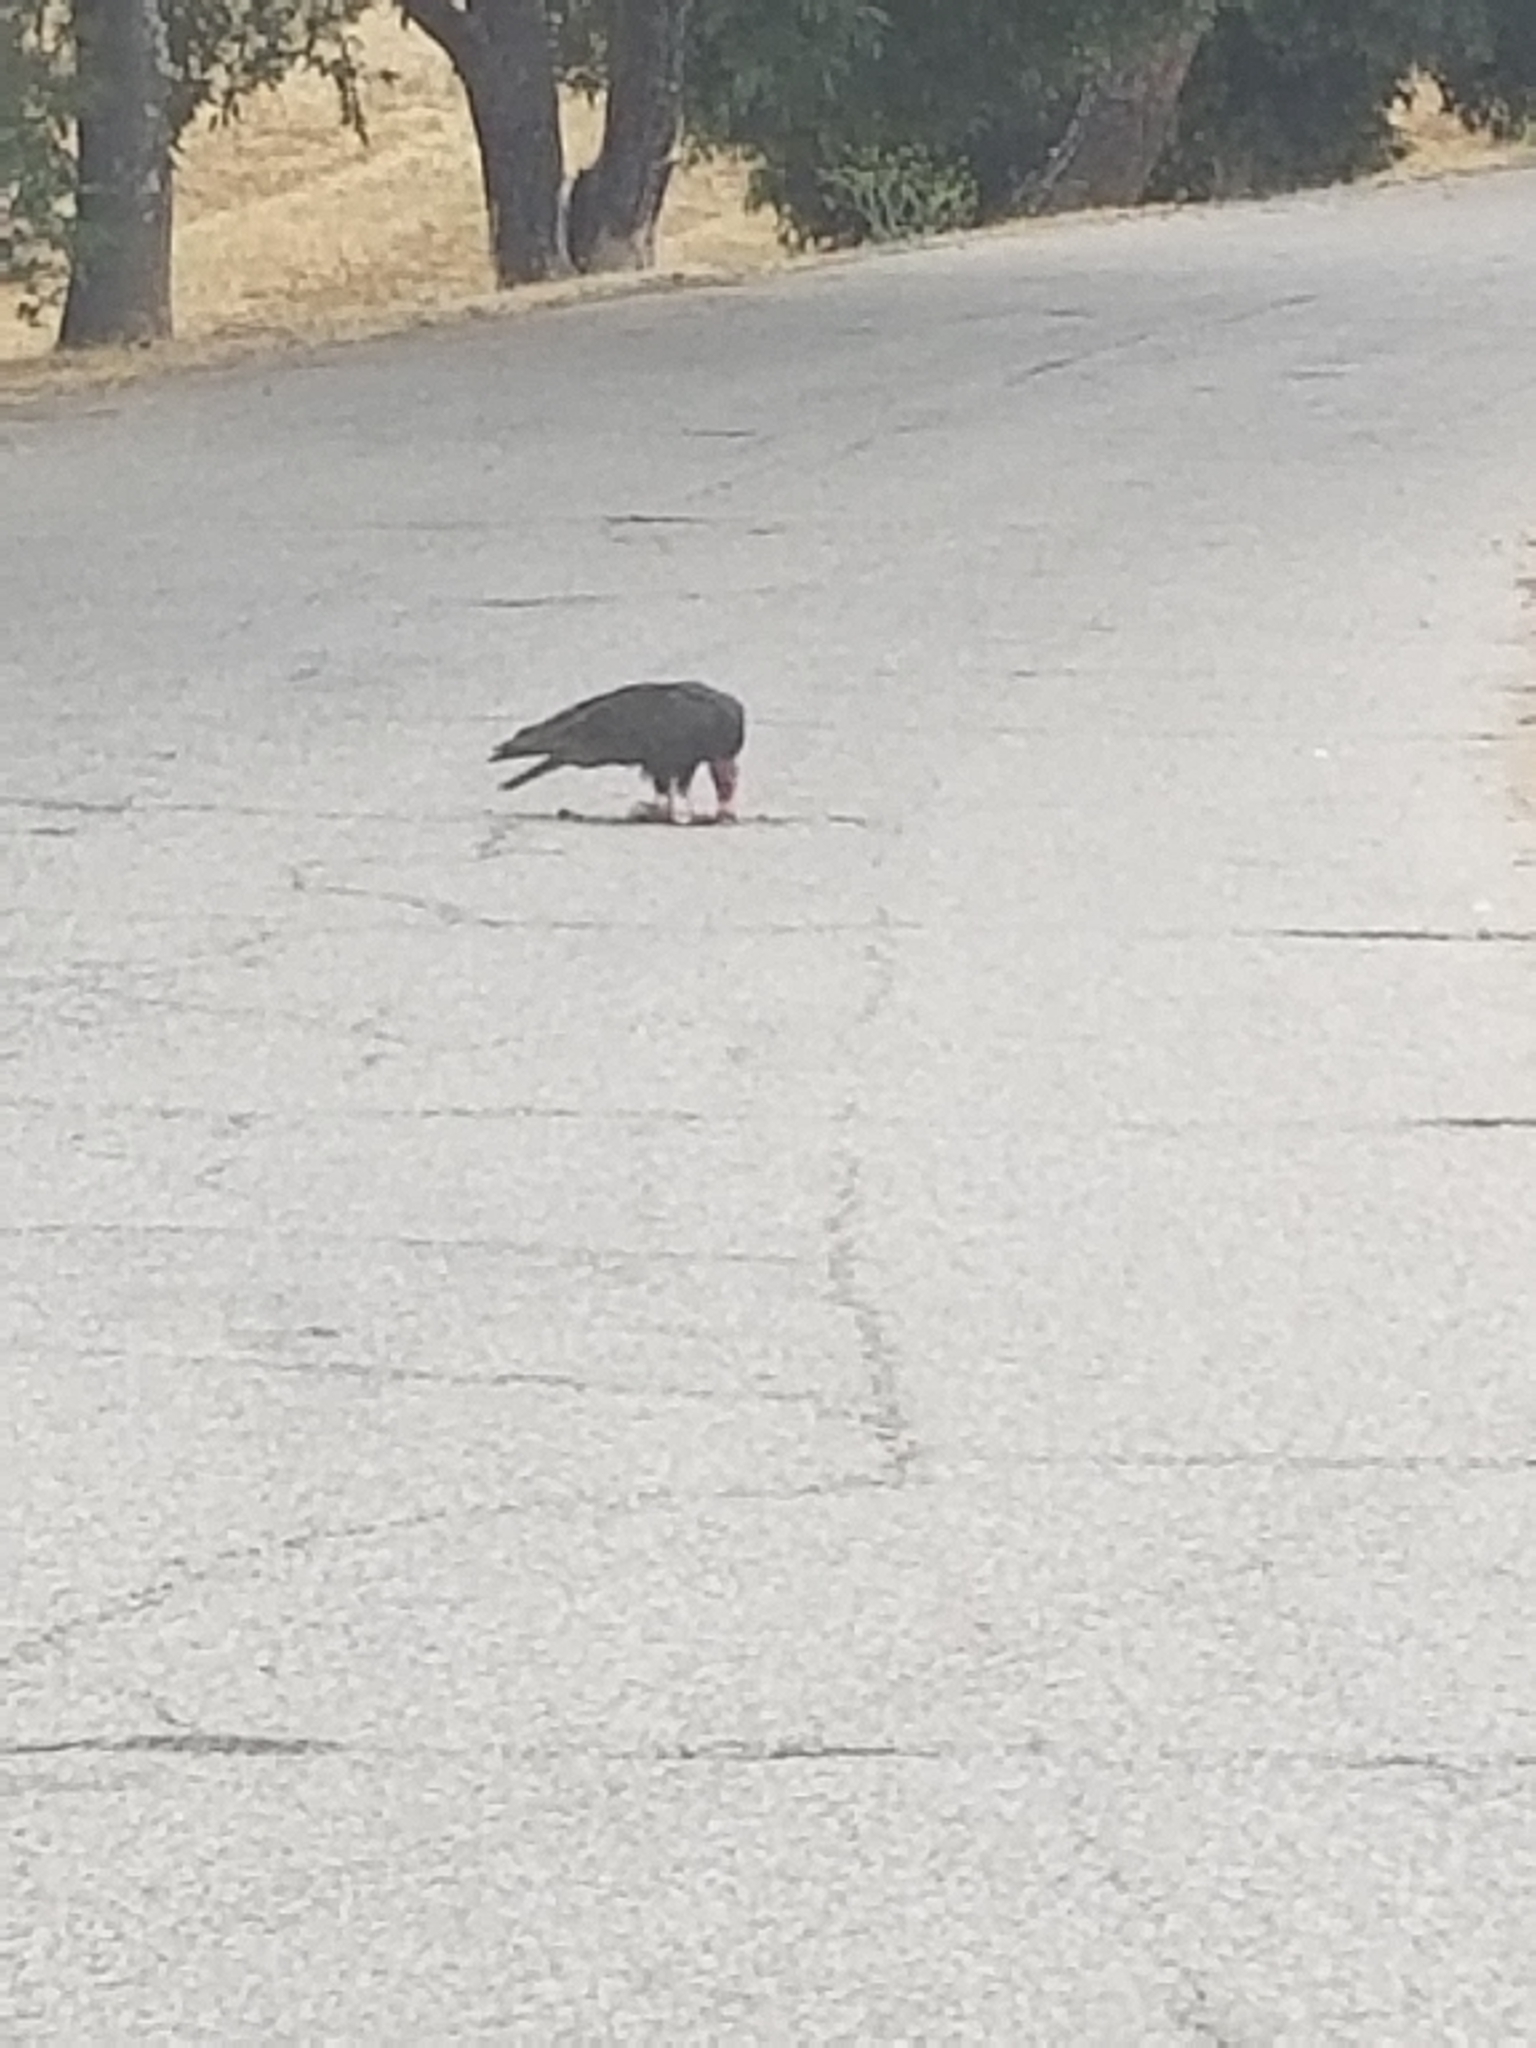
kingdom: Animalia
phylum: Chordata
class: Aves
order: Accipitriformes
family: Cathartidae
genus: Cathartes
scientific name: Cathartes aura
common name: Turkey vulture
